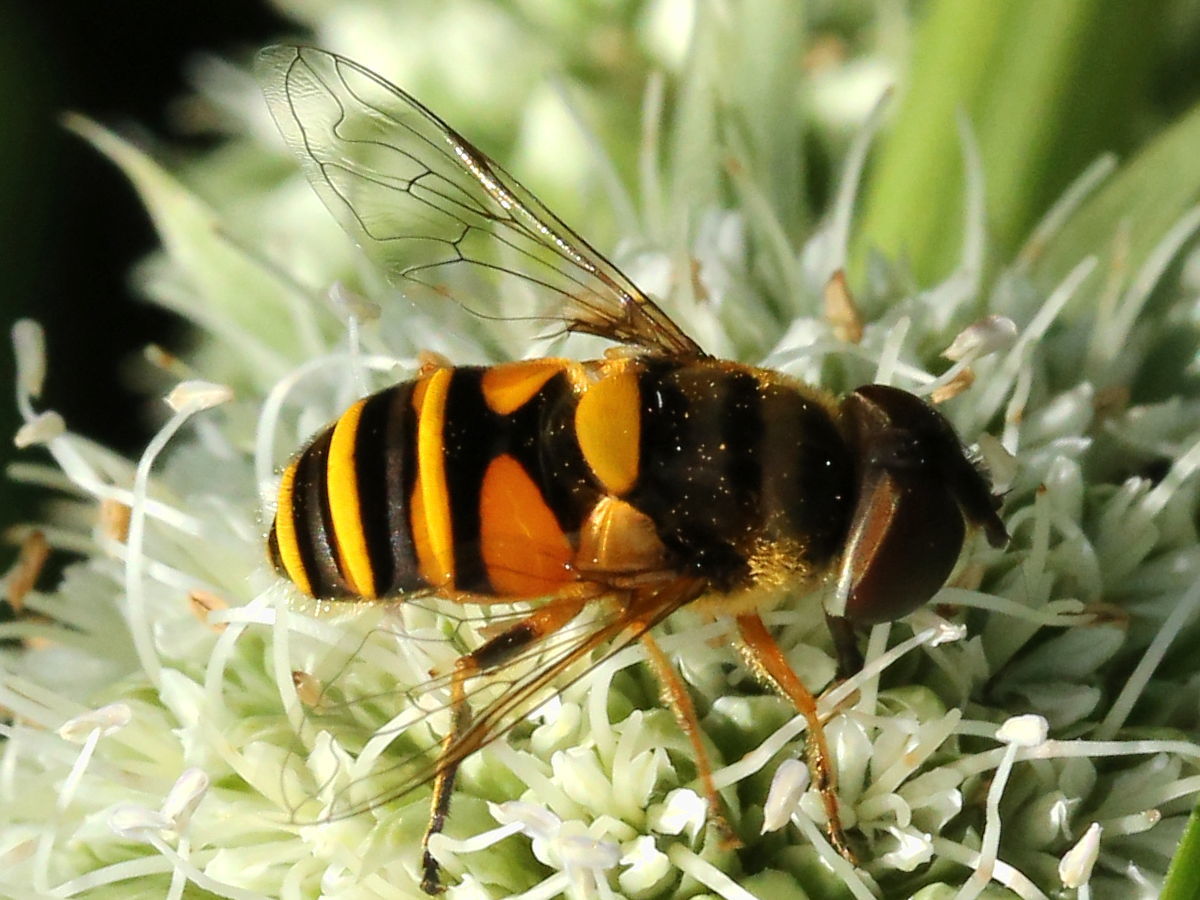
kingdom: Animalia
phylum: Arthropoda
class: Insecta
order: Diptera
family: Syrphidae
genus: Eristalis
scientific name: Eristalis transversa
